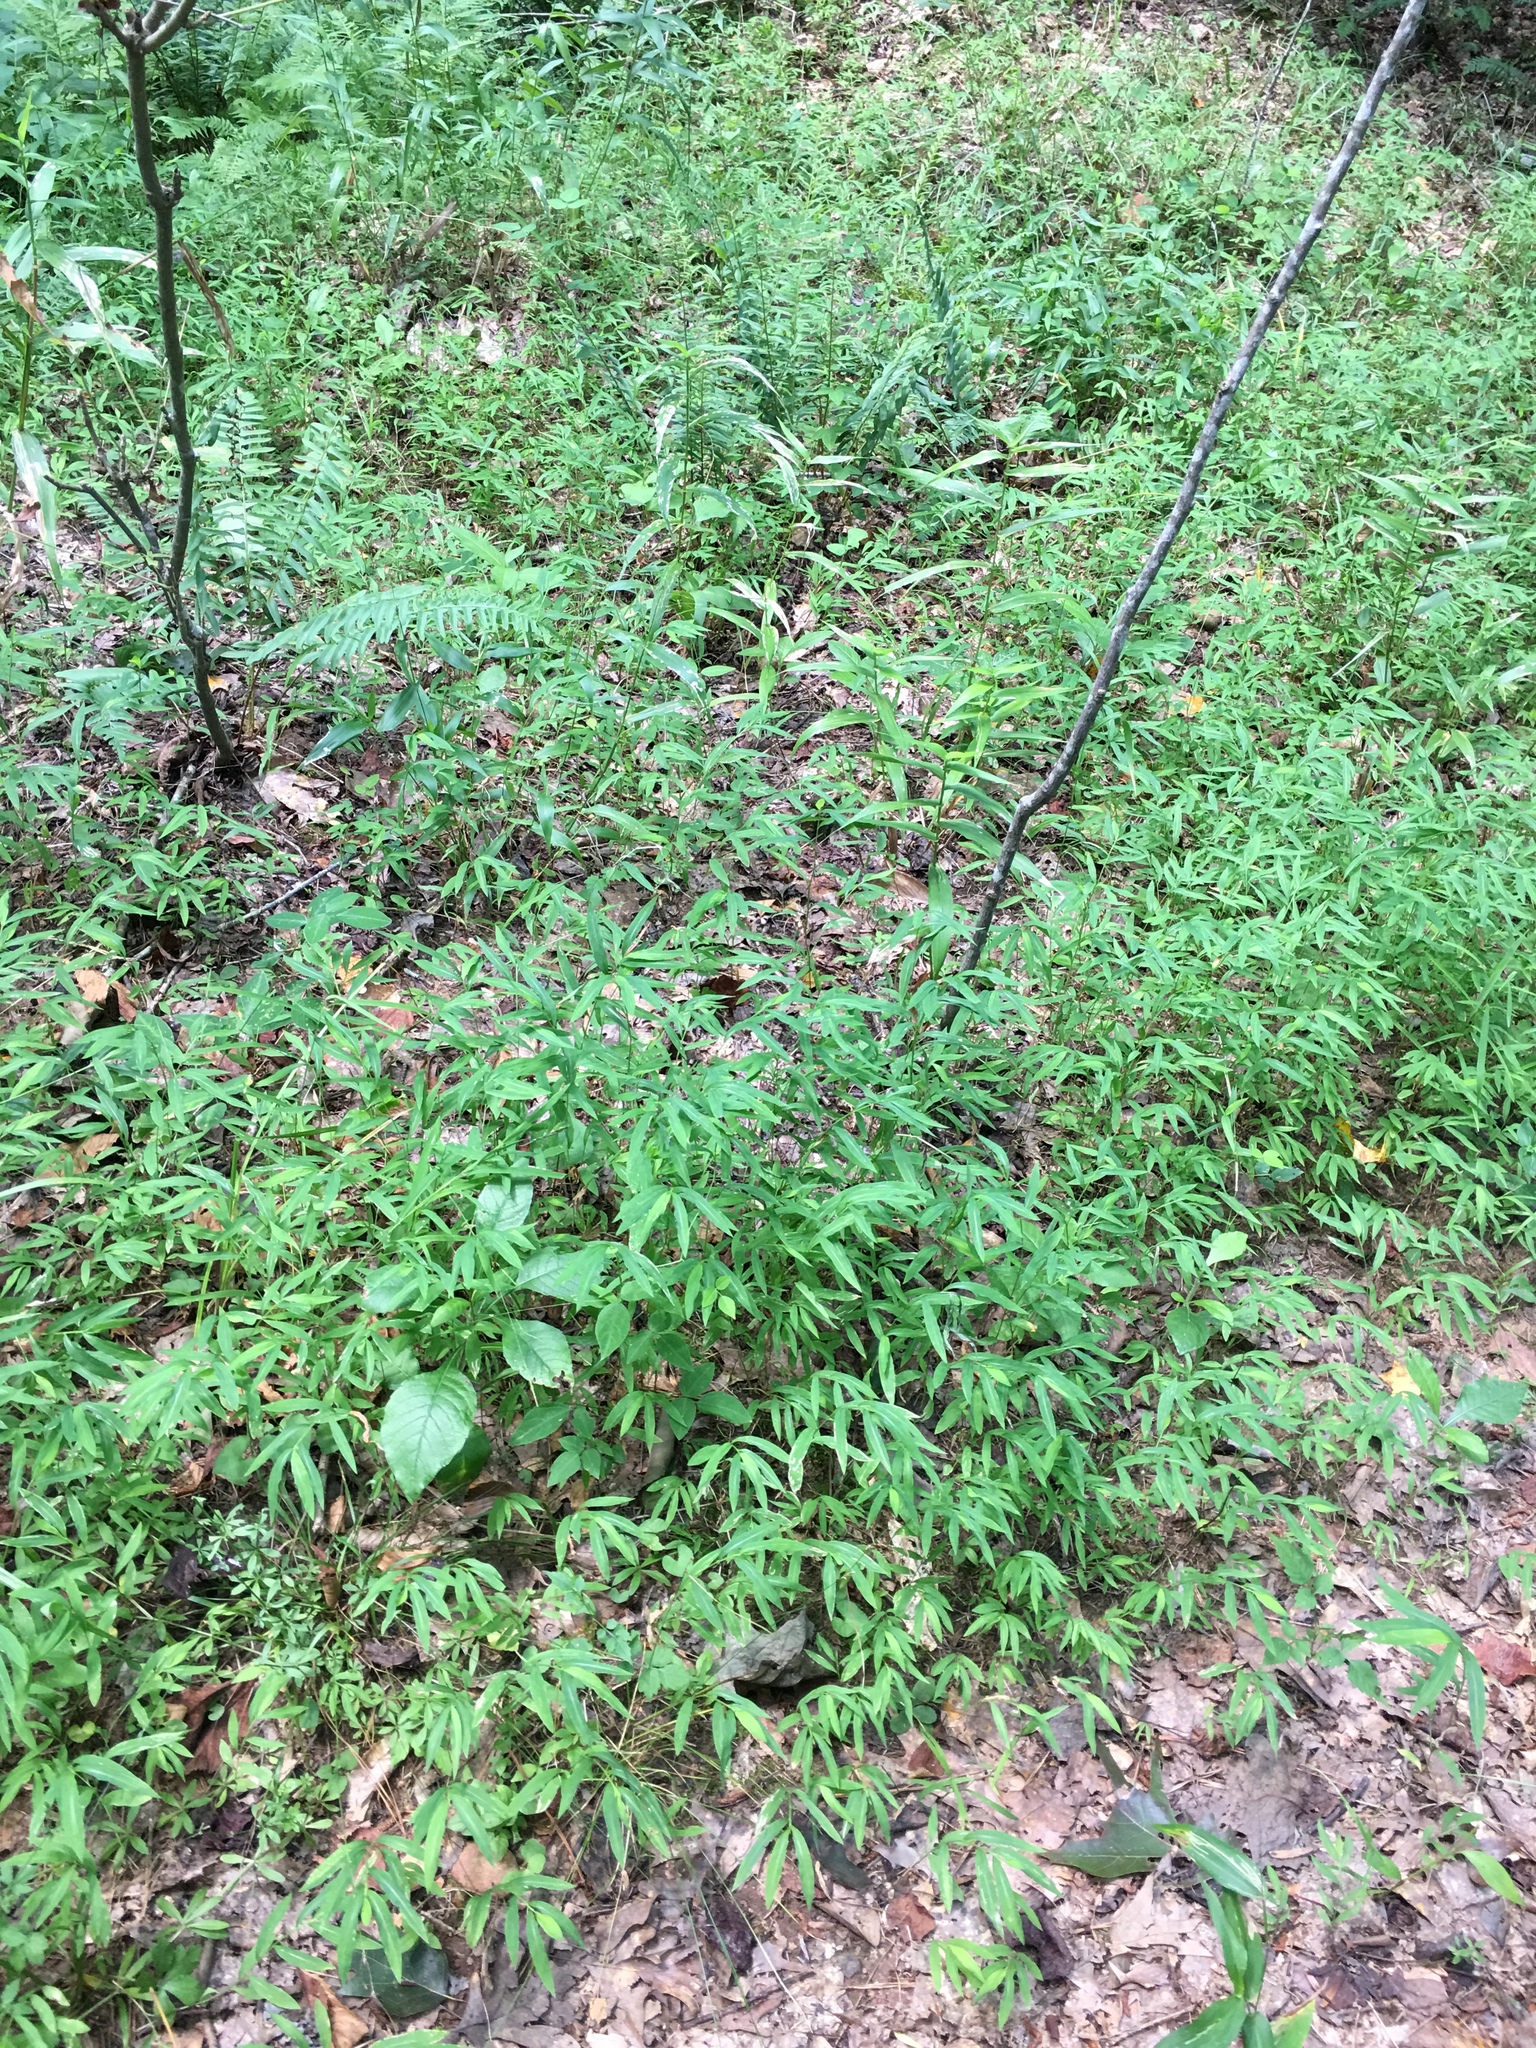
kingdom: Plantae
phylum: Tracheophyta
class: Liliopsida
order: Poales
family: Poaceae
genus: Microstegium
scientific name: Microstegium vimineum
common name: Japanese stiltgrass
